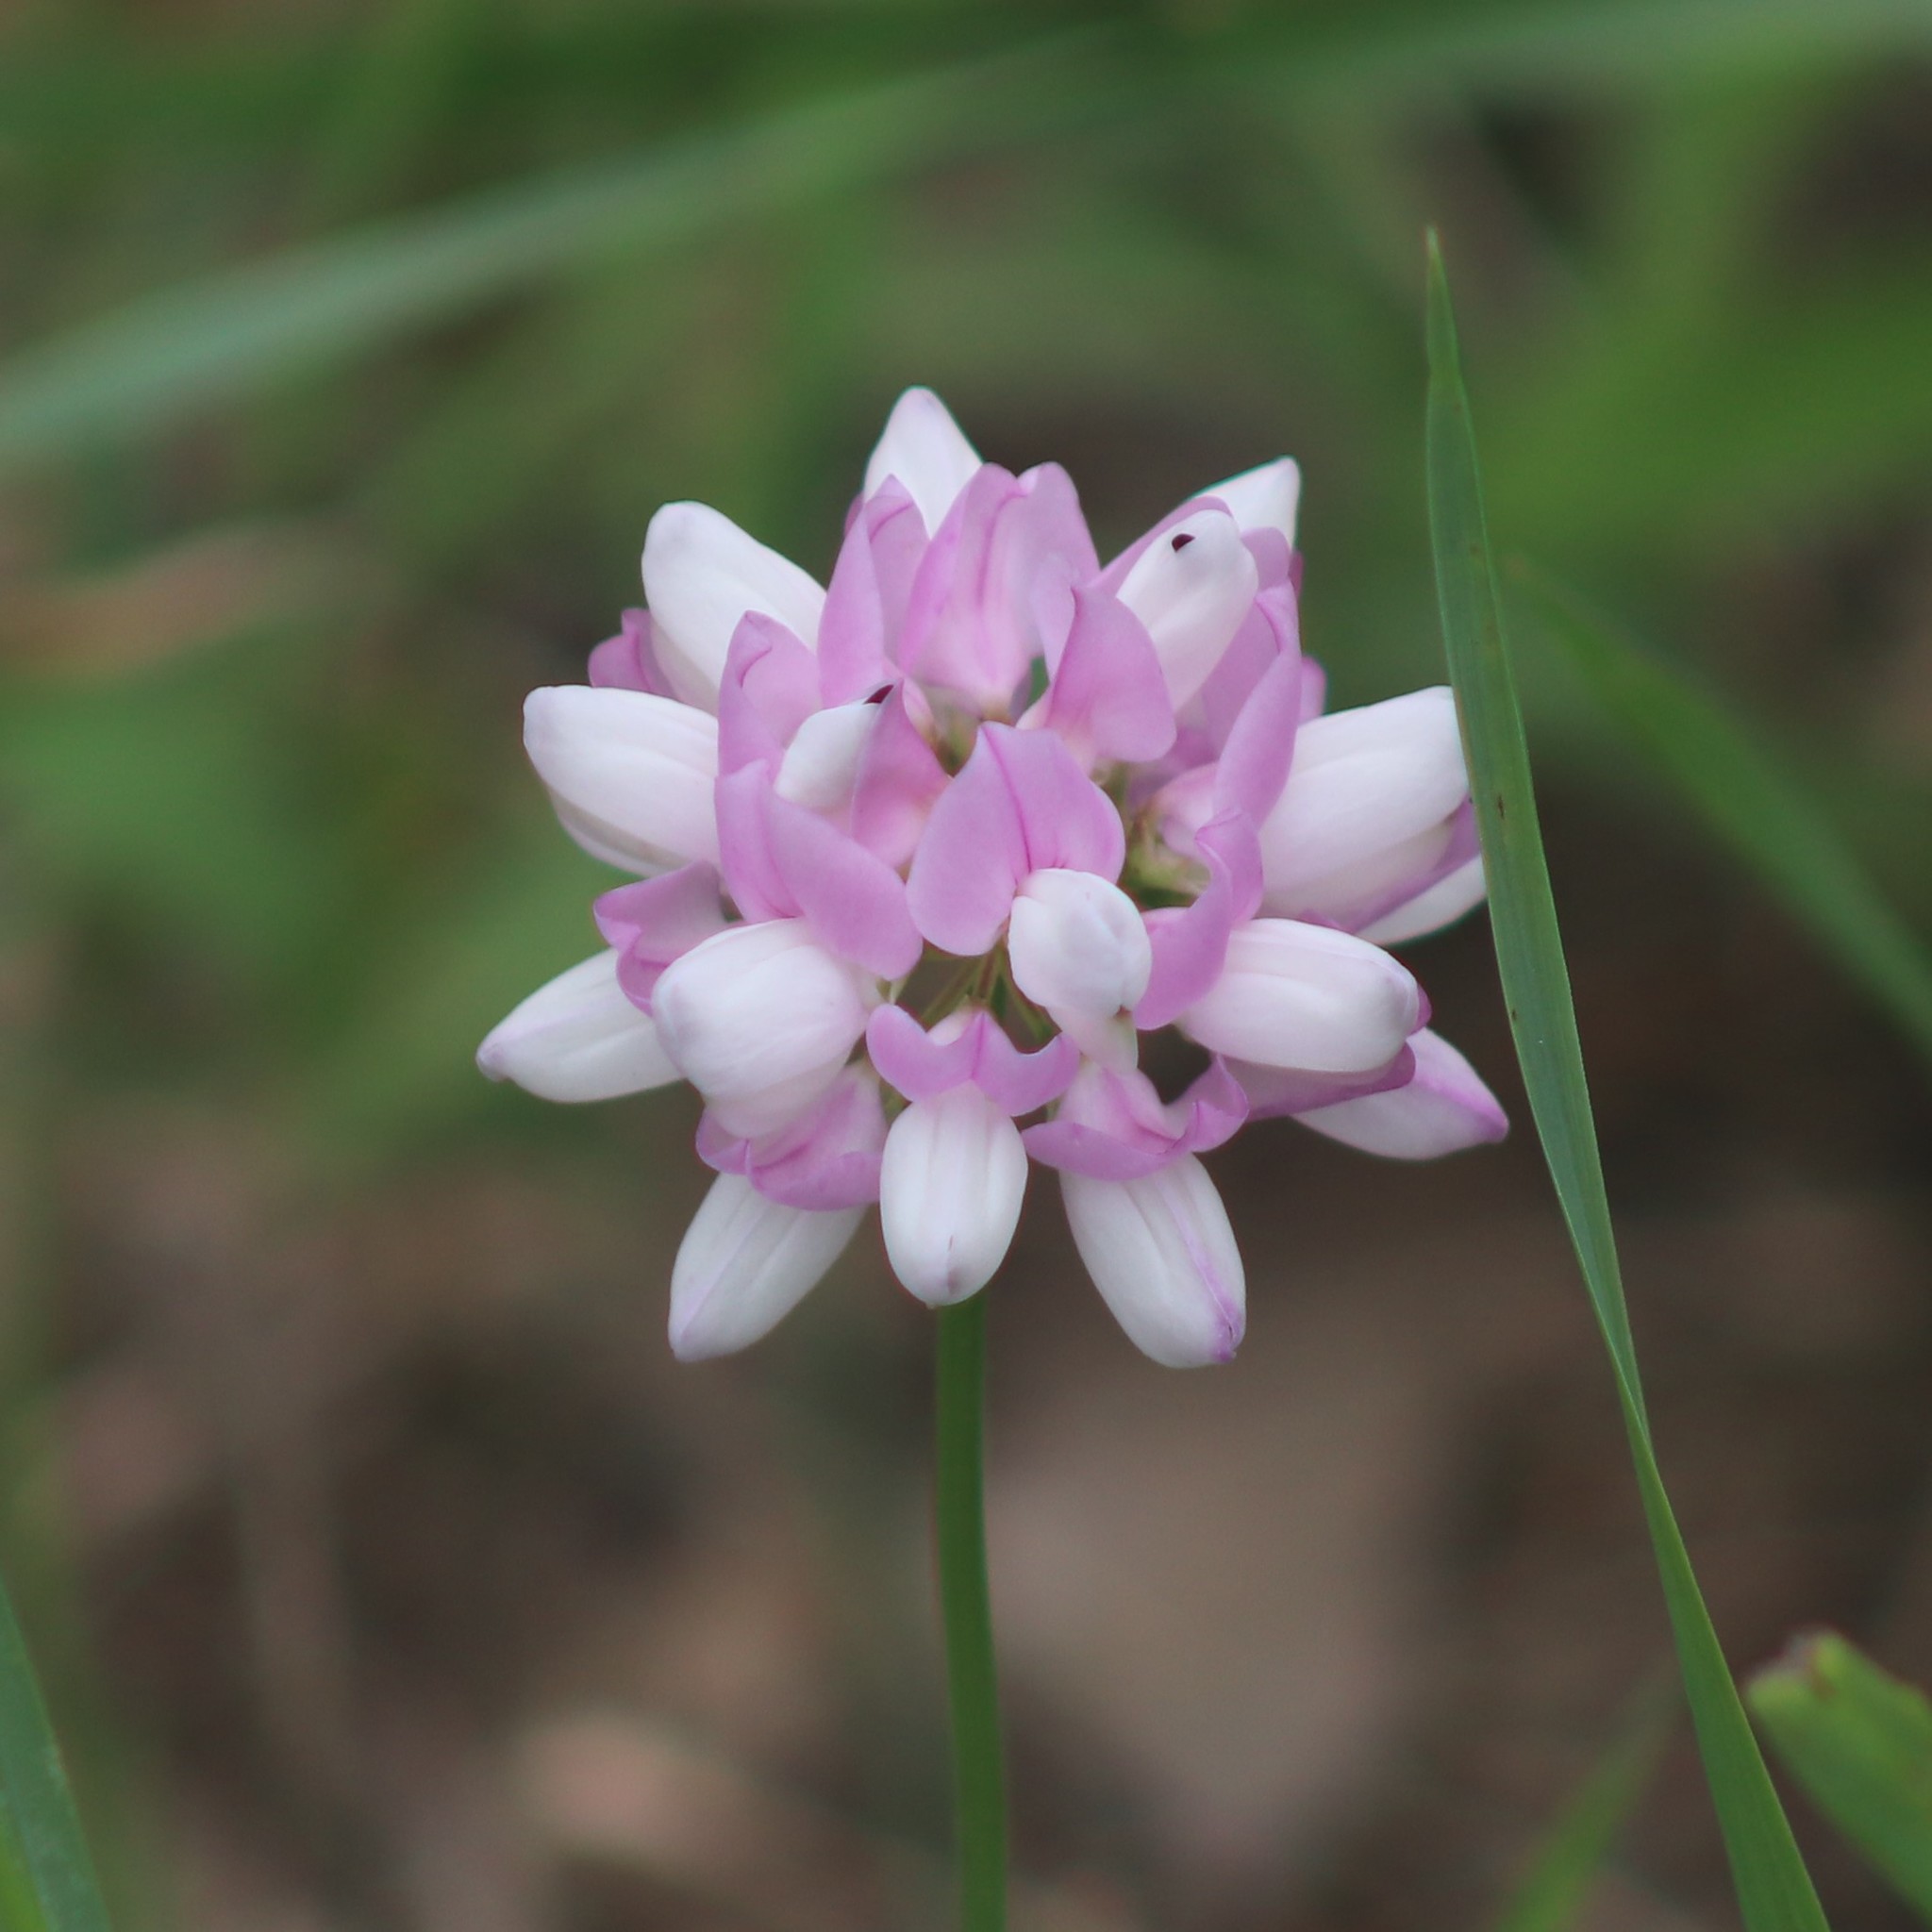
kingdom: Plantae
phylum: Tracheophyta
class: Magnoliopsida
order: Fabales
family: Fabaceae
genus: Coronilla
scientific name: Coronilla varia
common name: Crownvetch
